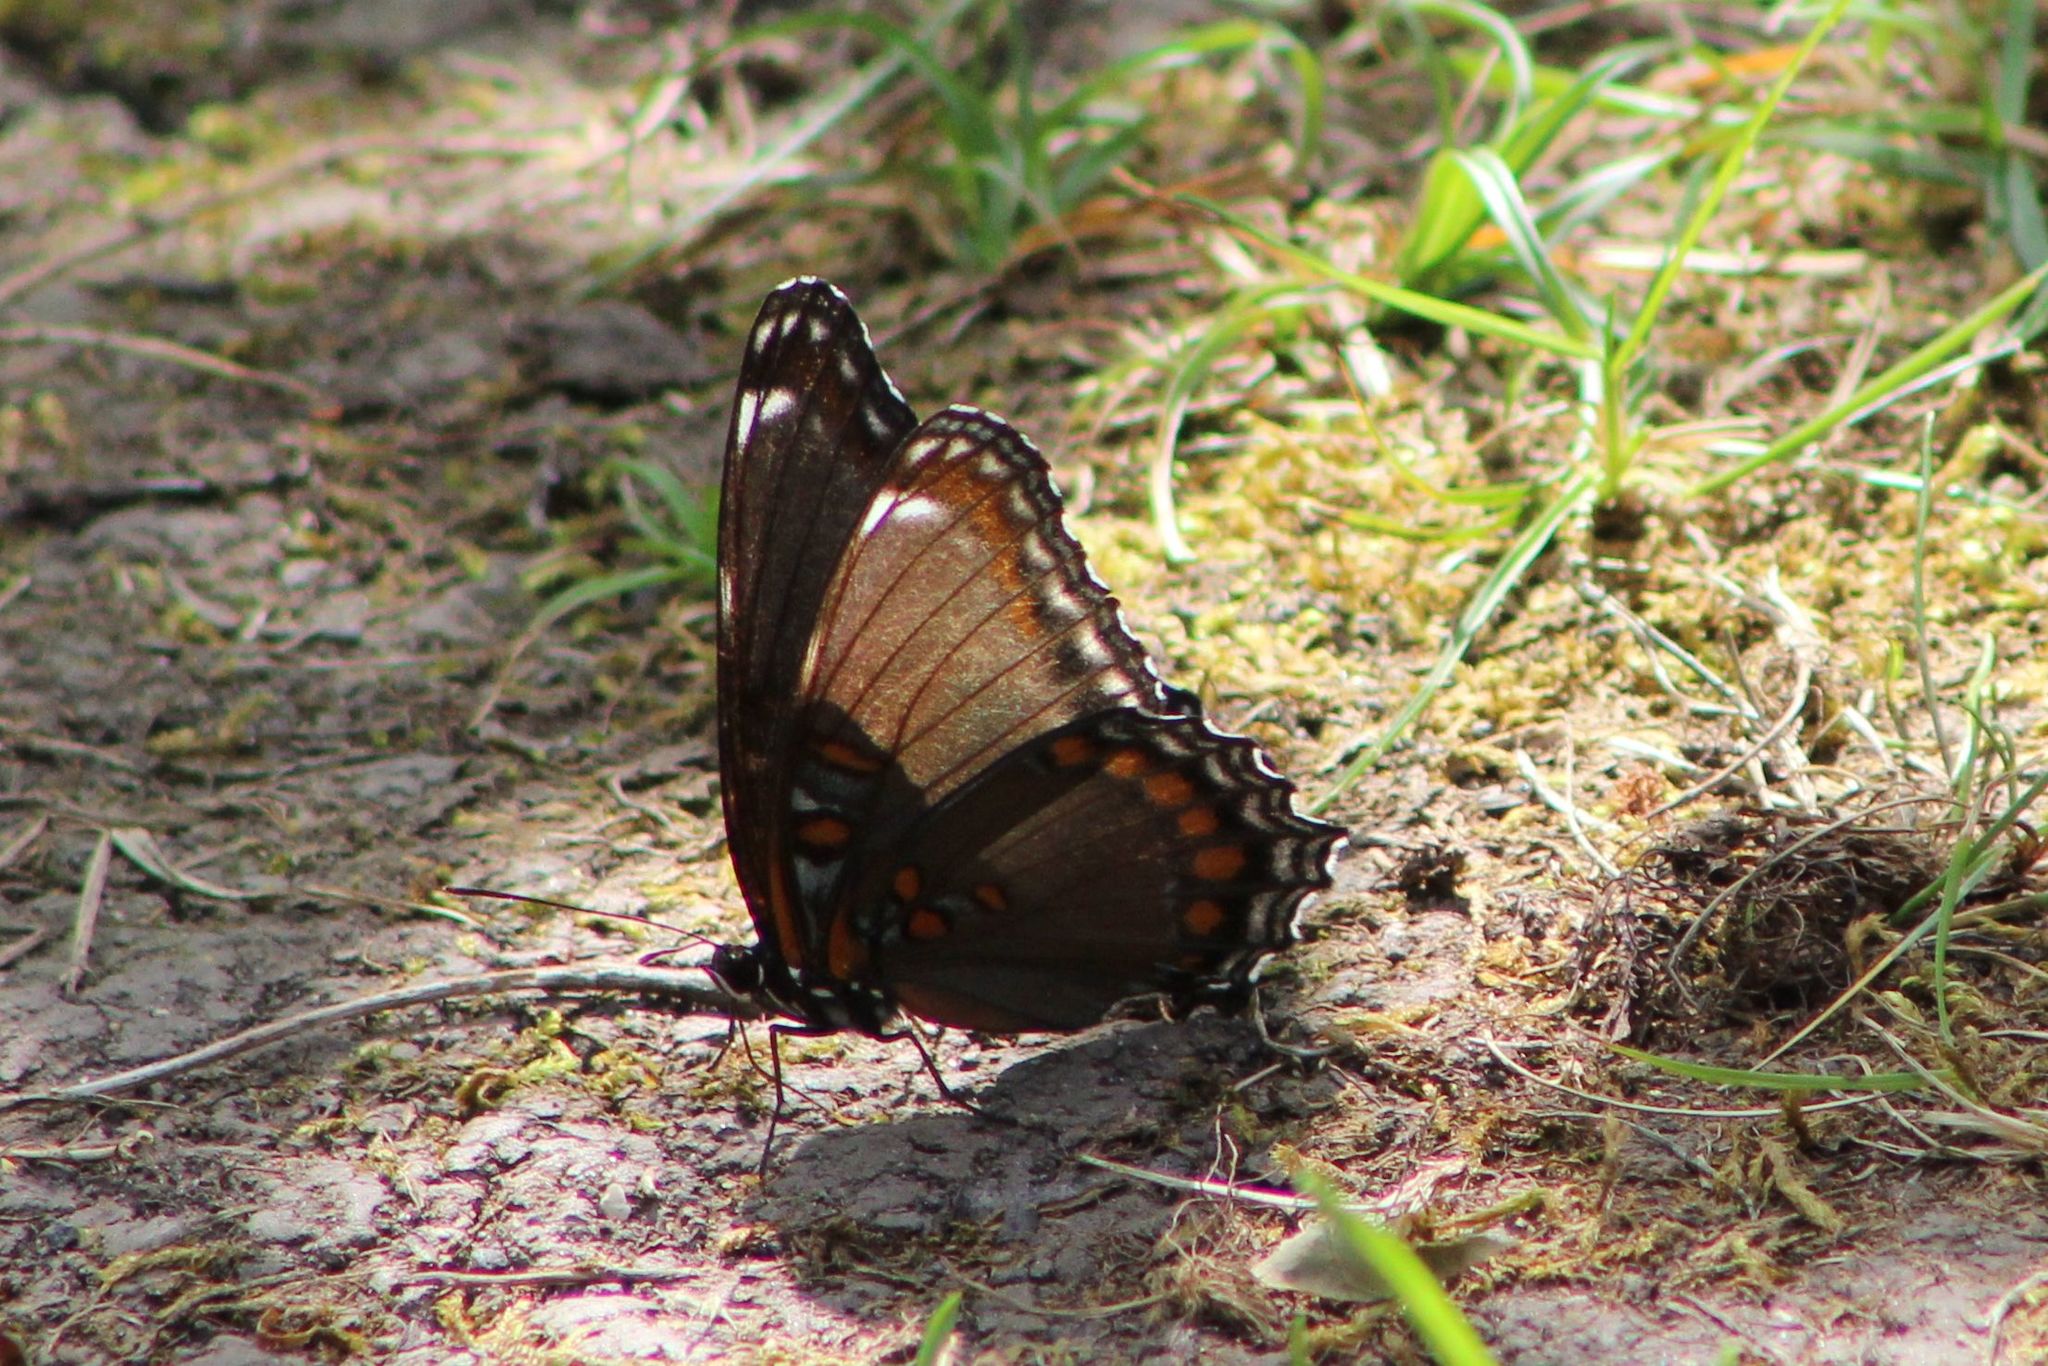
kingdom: Animalia
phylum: Arthropoda
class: Insecta
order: Lepidoptera
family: Nymphalidae
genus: Limenitis
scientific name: Limenitis astyanax
